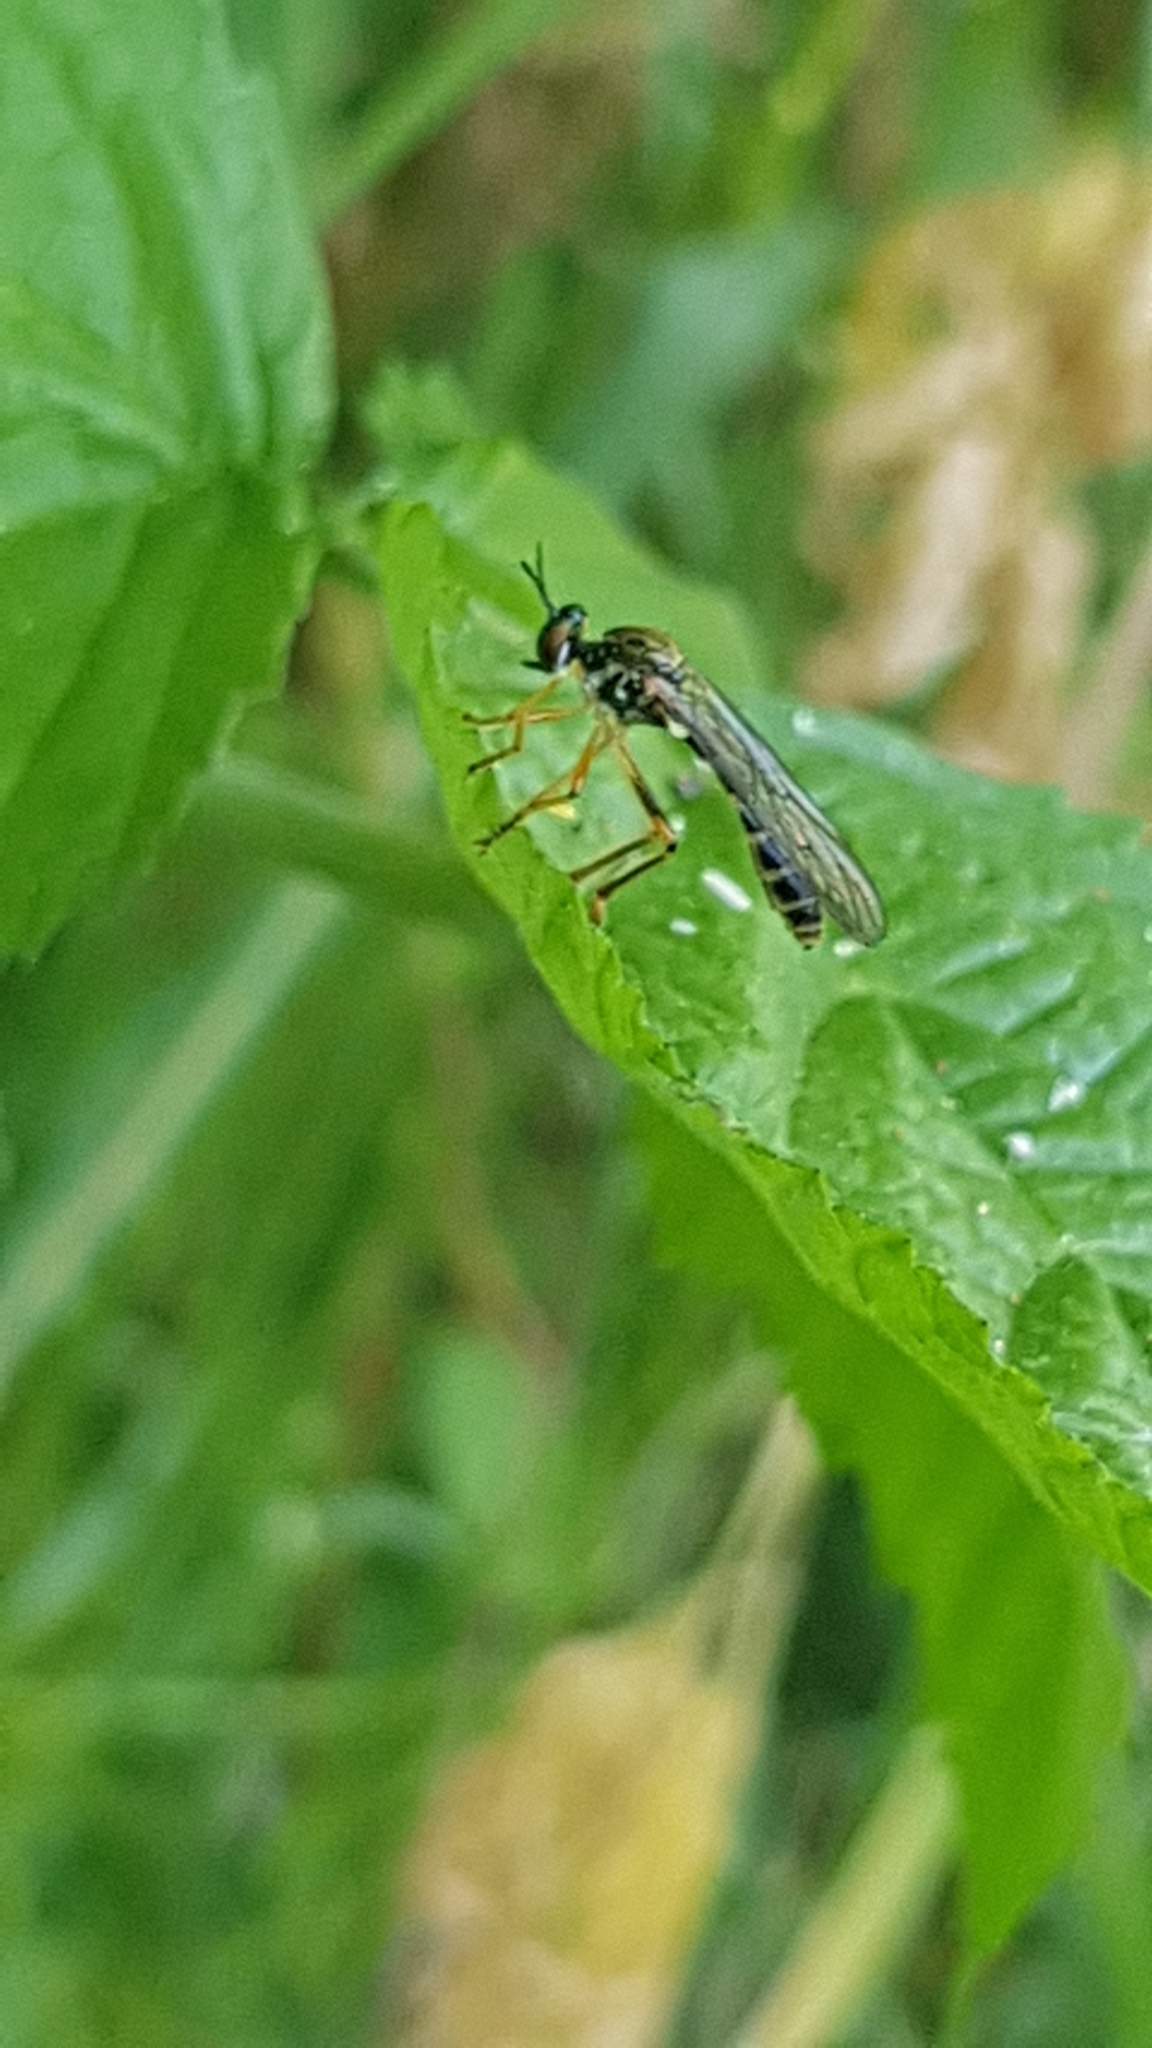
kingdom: Animalia
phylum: Arthropoda
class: Insecta
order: Diptera
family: Asilidae
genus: Dioctria
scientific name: Dioctria linearis
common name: Small yellow-legged robberfly
